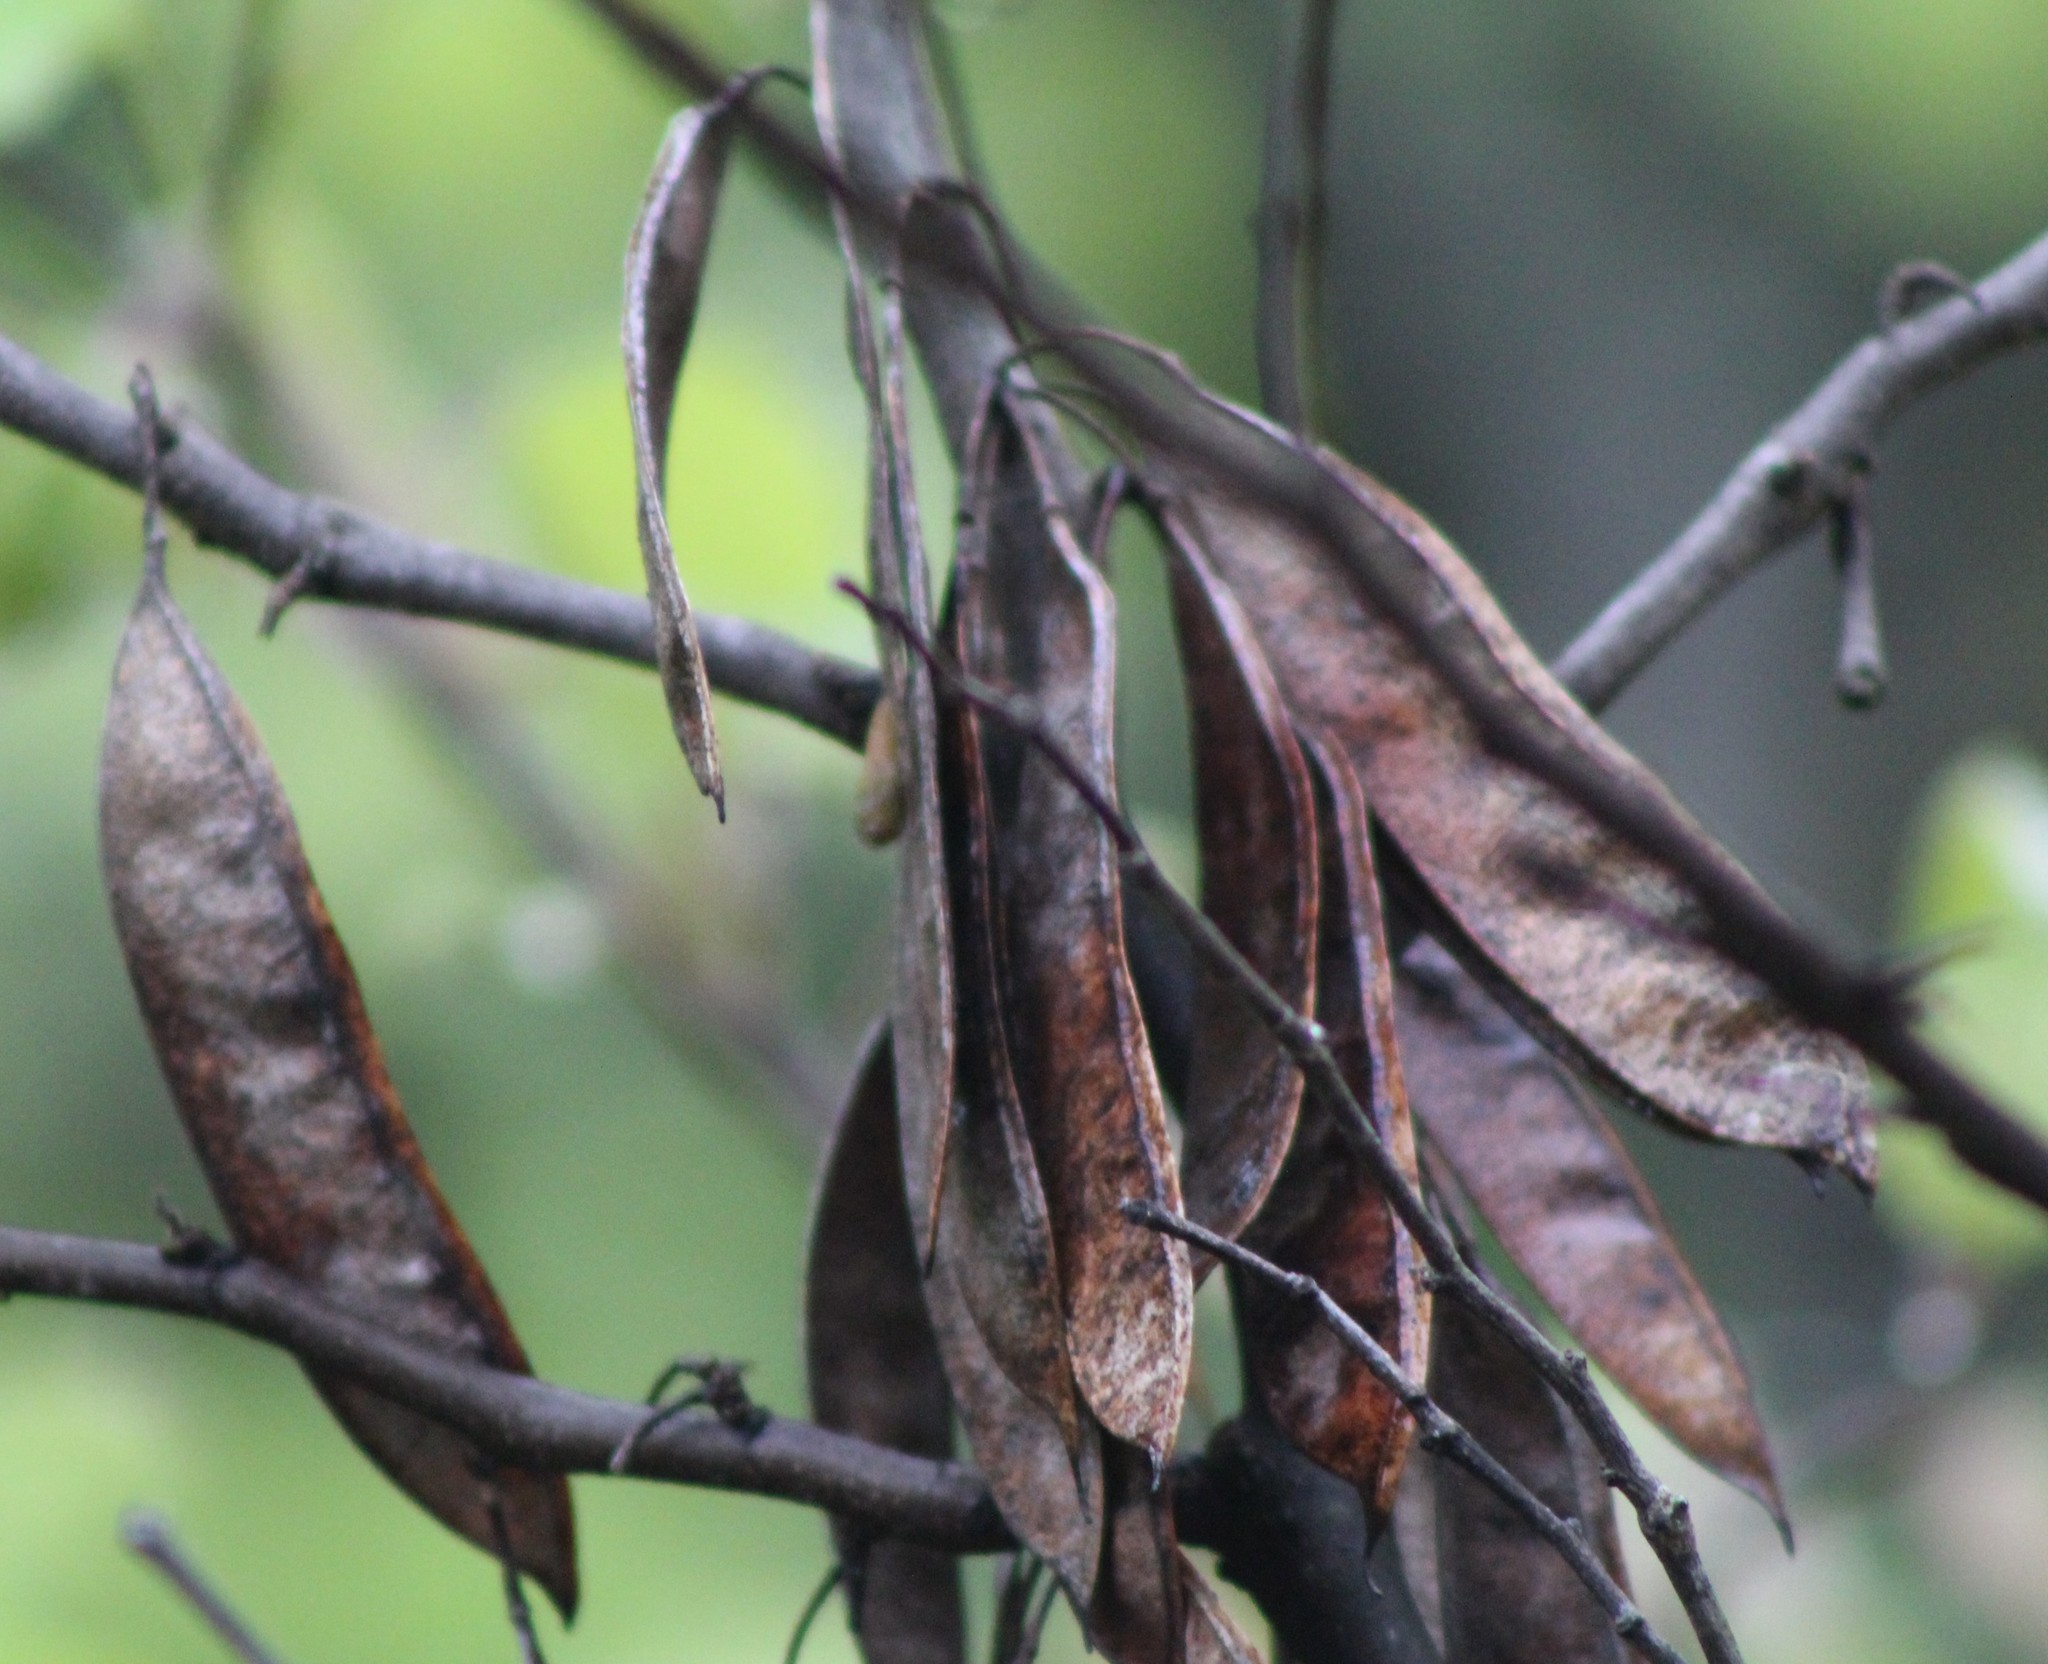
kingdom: Plantae
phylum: Tracheophyta
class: Magnoliopsida
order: Fabales
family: Fabaceae
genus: Cercis
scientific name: Cercis canadensis
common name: Eastern redbud
